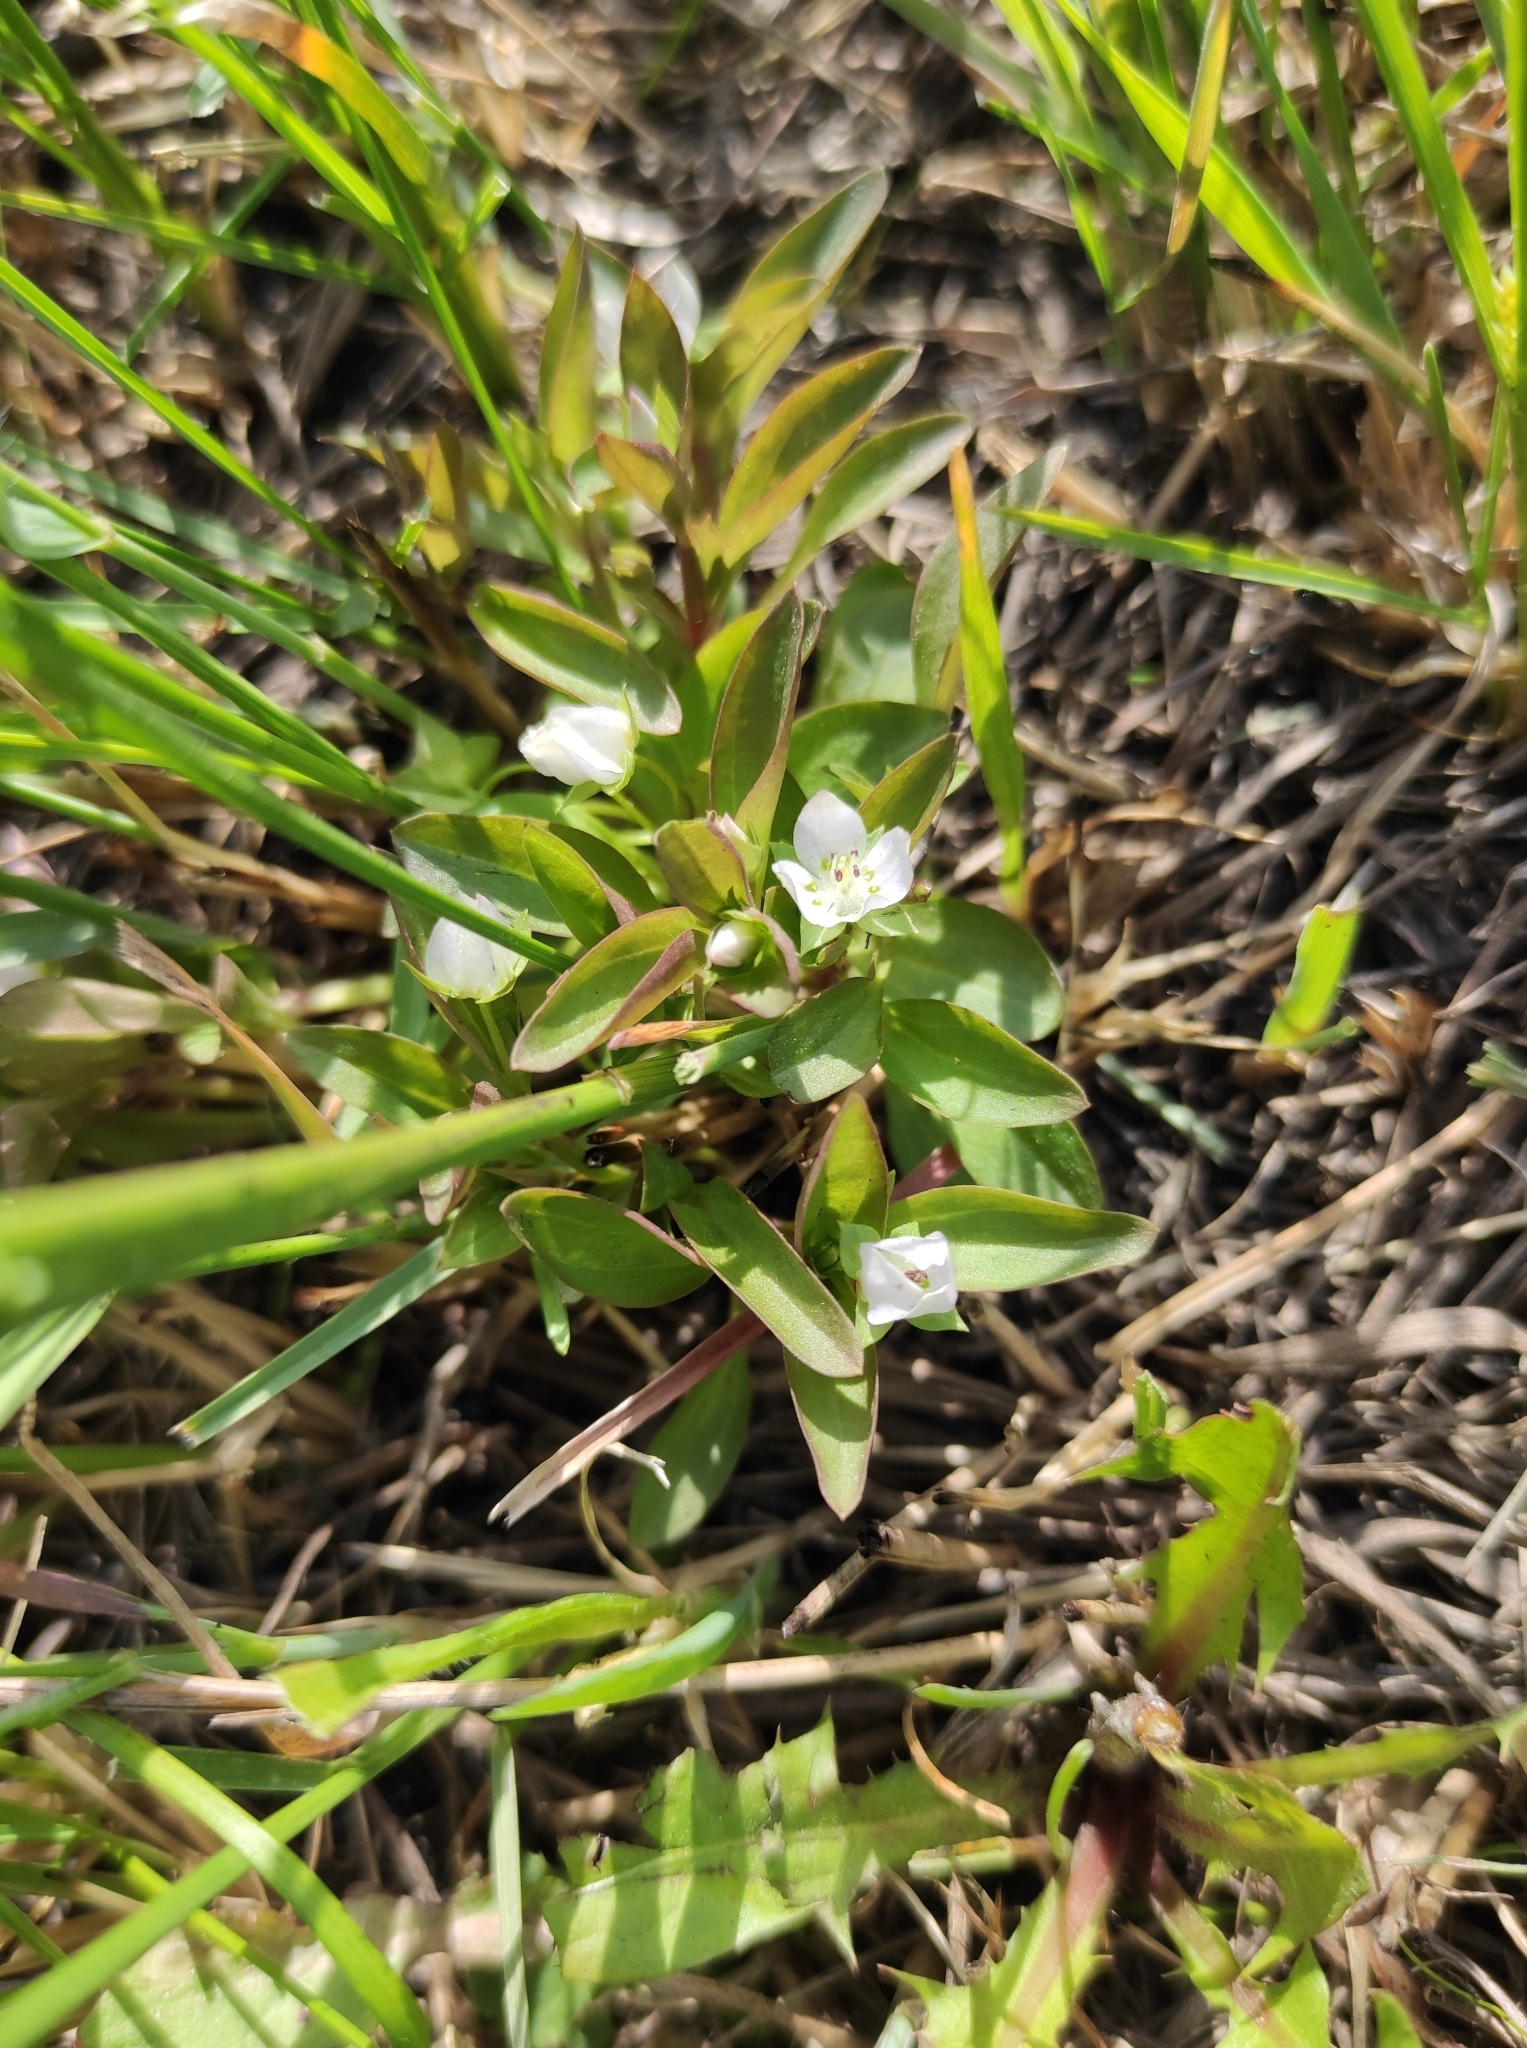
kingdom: Plantae
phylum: Tracheophyta
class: Magnoliopsida
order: Gentianales
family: Gentianaceae
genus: Swertia
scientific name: Swertia dichotoma
